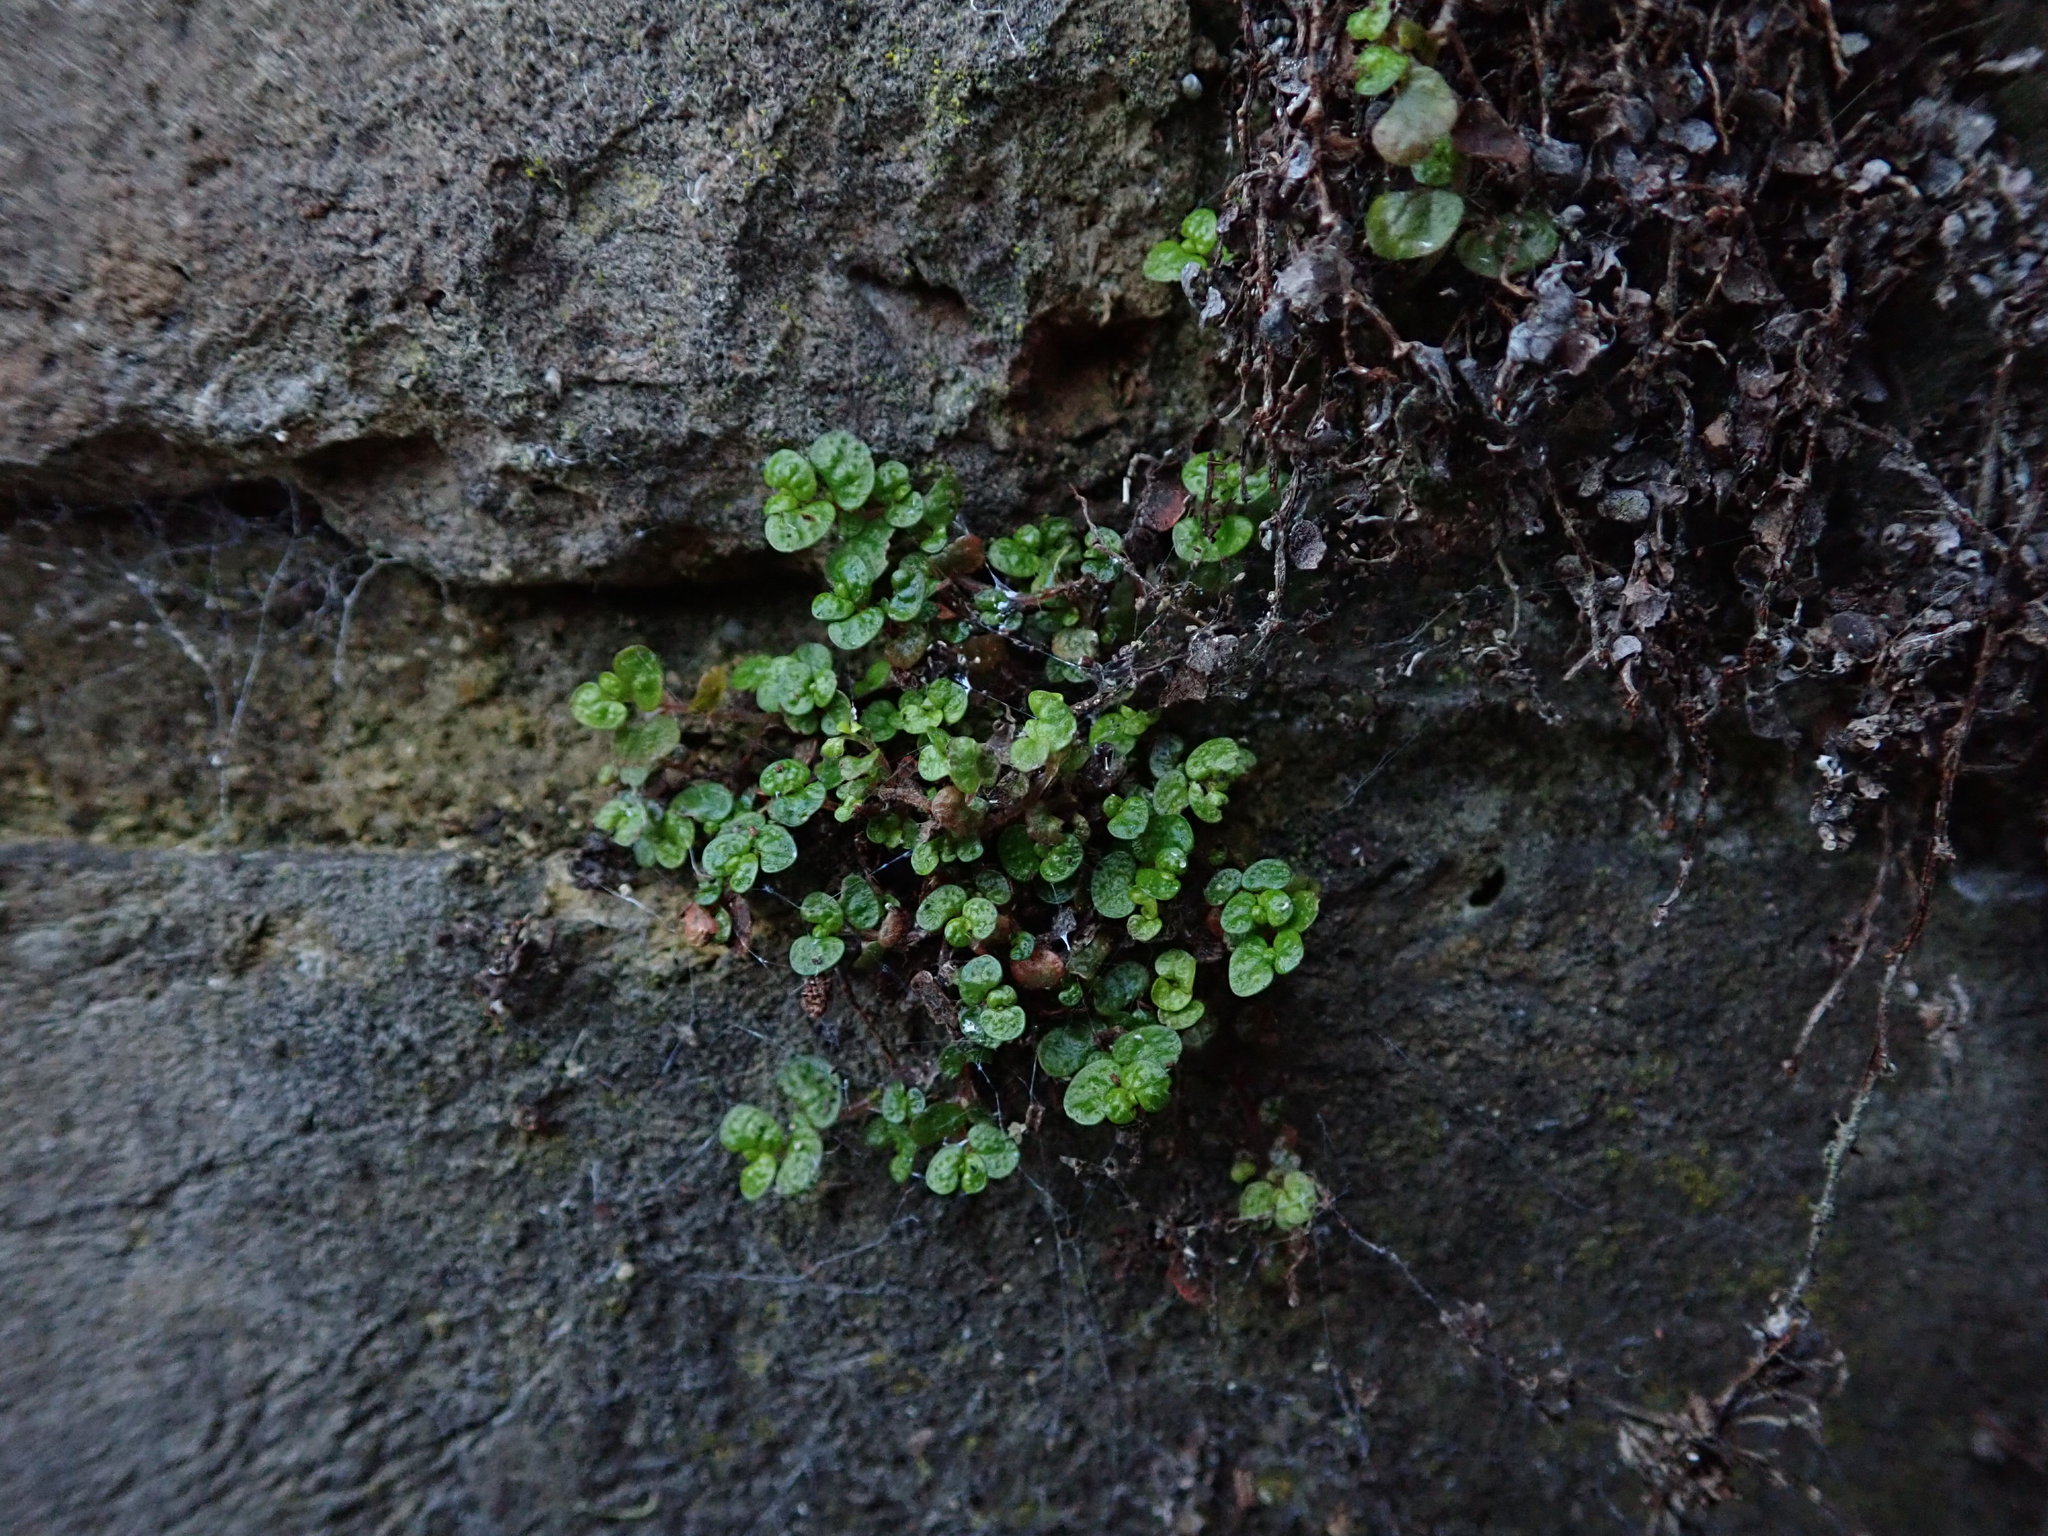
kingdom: Plantae
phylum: Tracheophyta
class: Magnoliopsida
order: Rosales
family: Urticaceae
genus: Soleirolia
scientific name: Soleirolia soleirolii
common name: Mind-your-own-business
